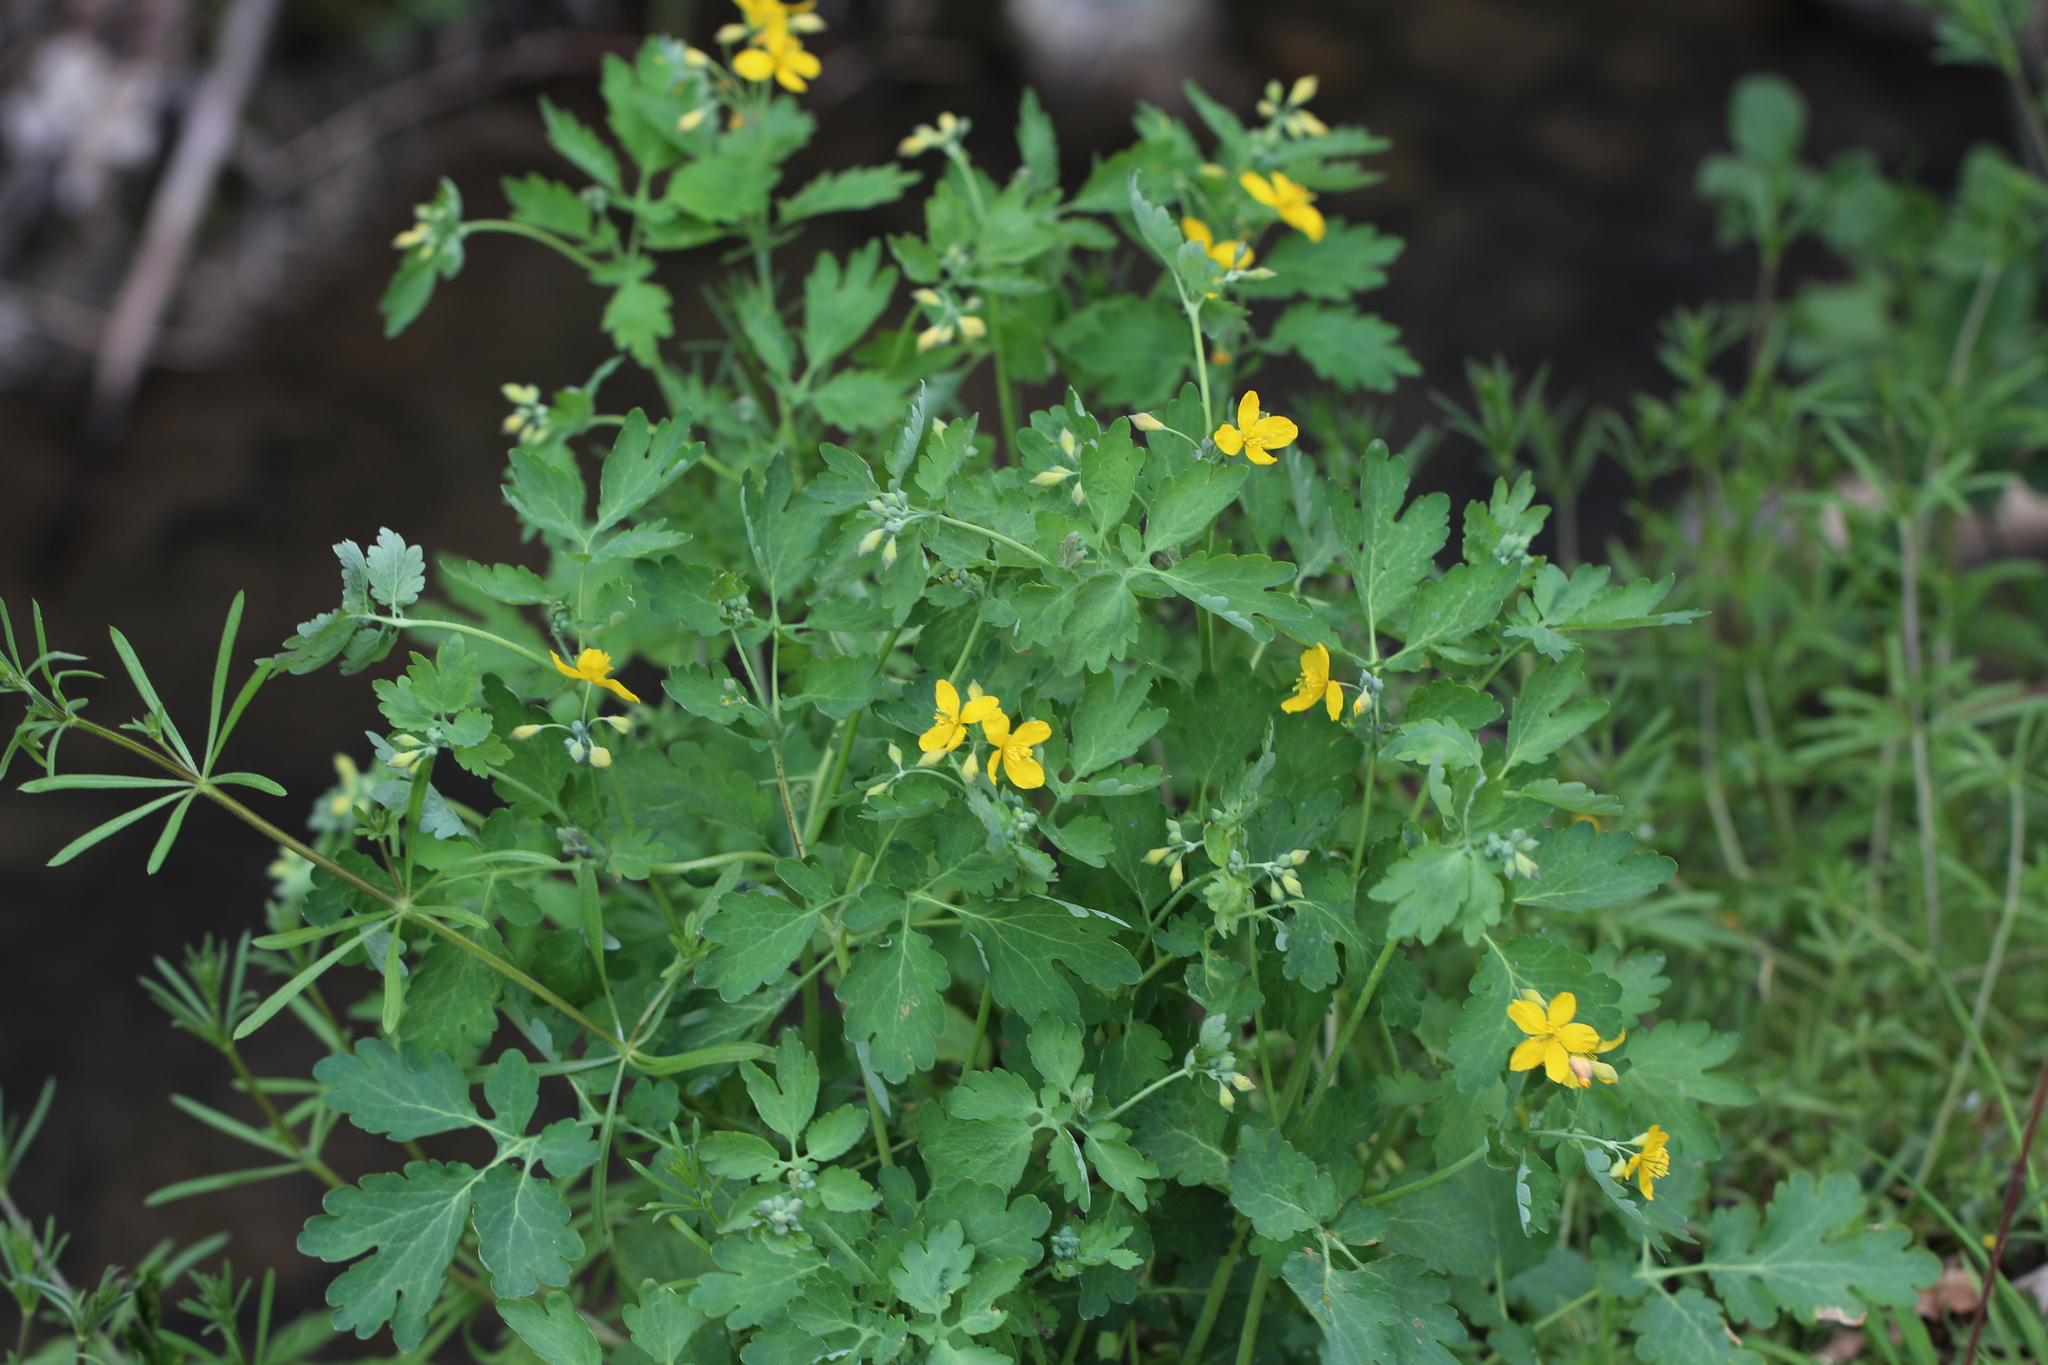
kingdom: Plantae
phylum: Tracheophyta
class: Magnoliopsida
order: Ranunculales
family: Papaveraceae
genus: Chelidonium
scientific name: Chelidonium majus
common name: Greater celandine
